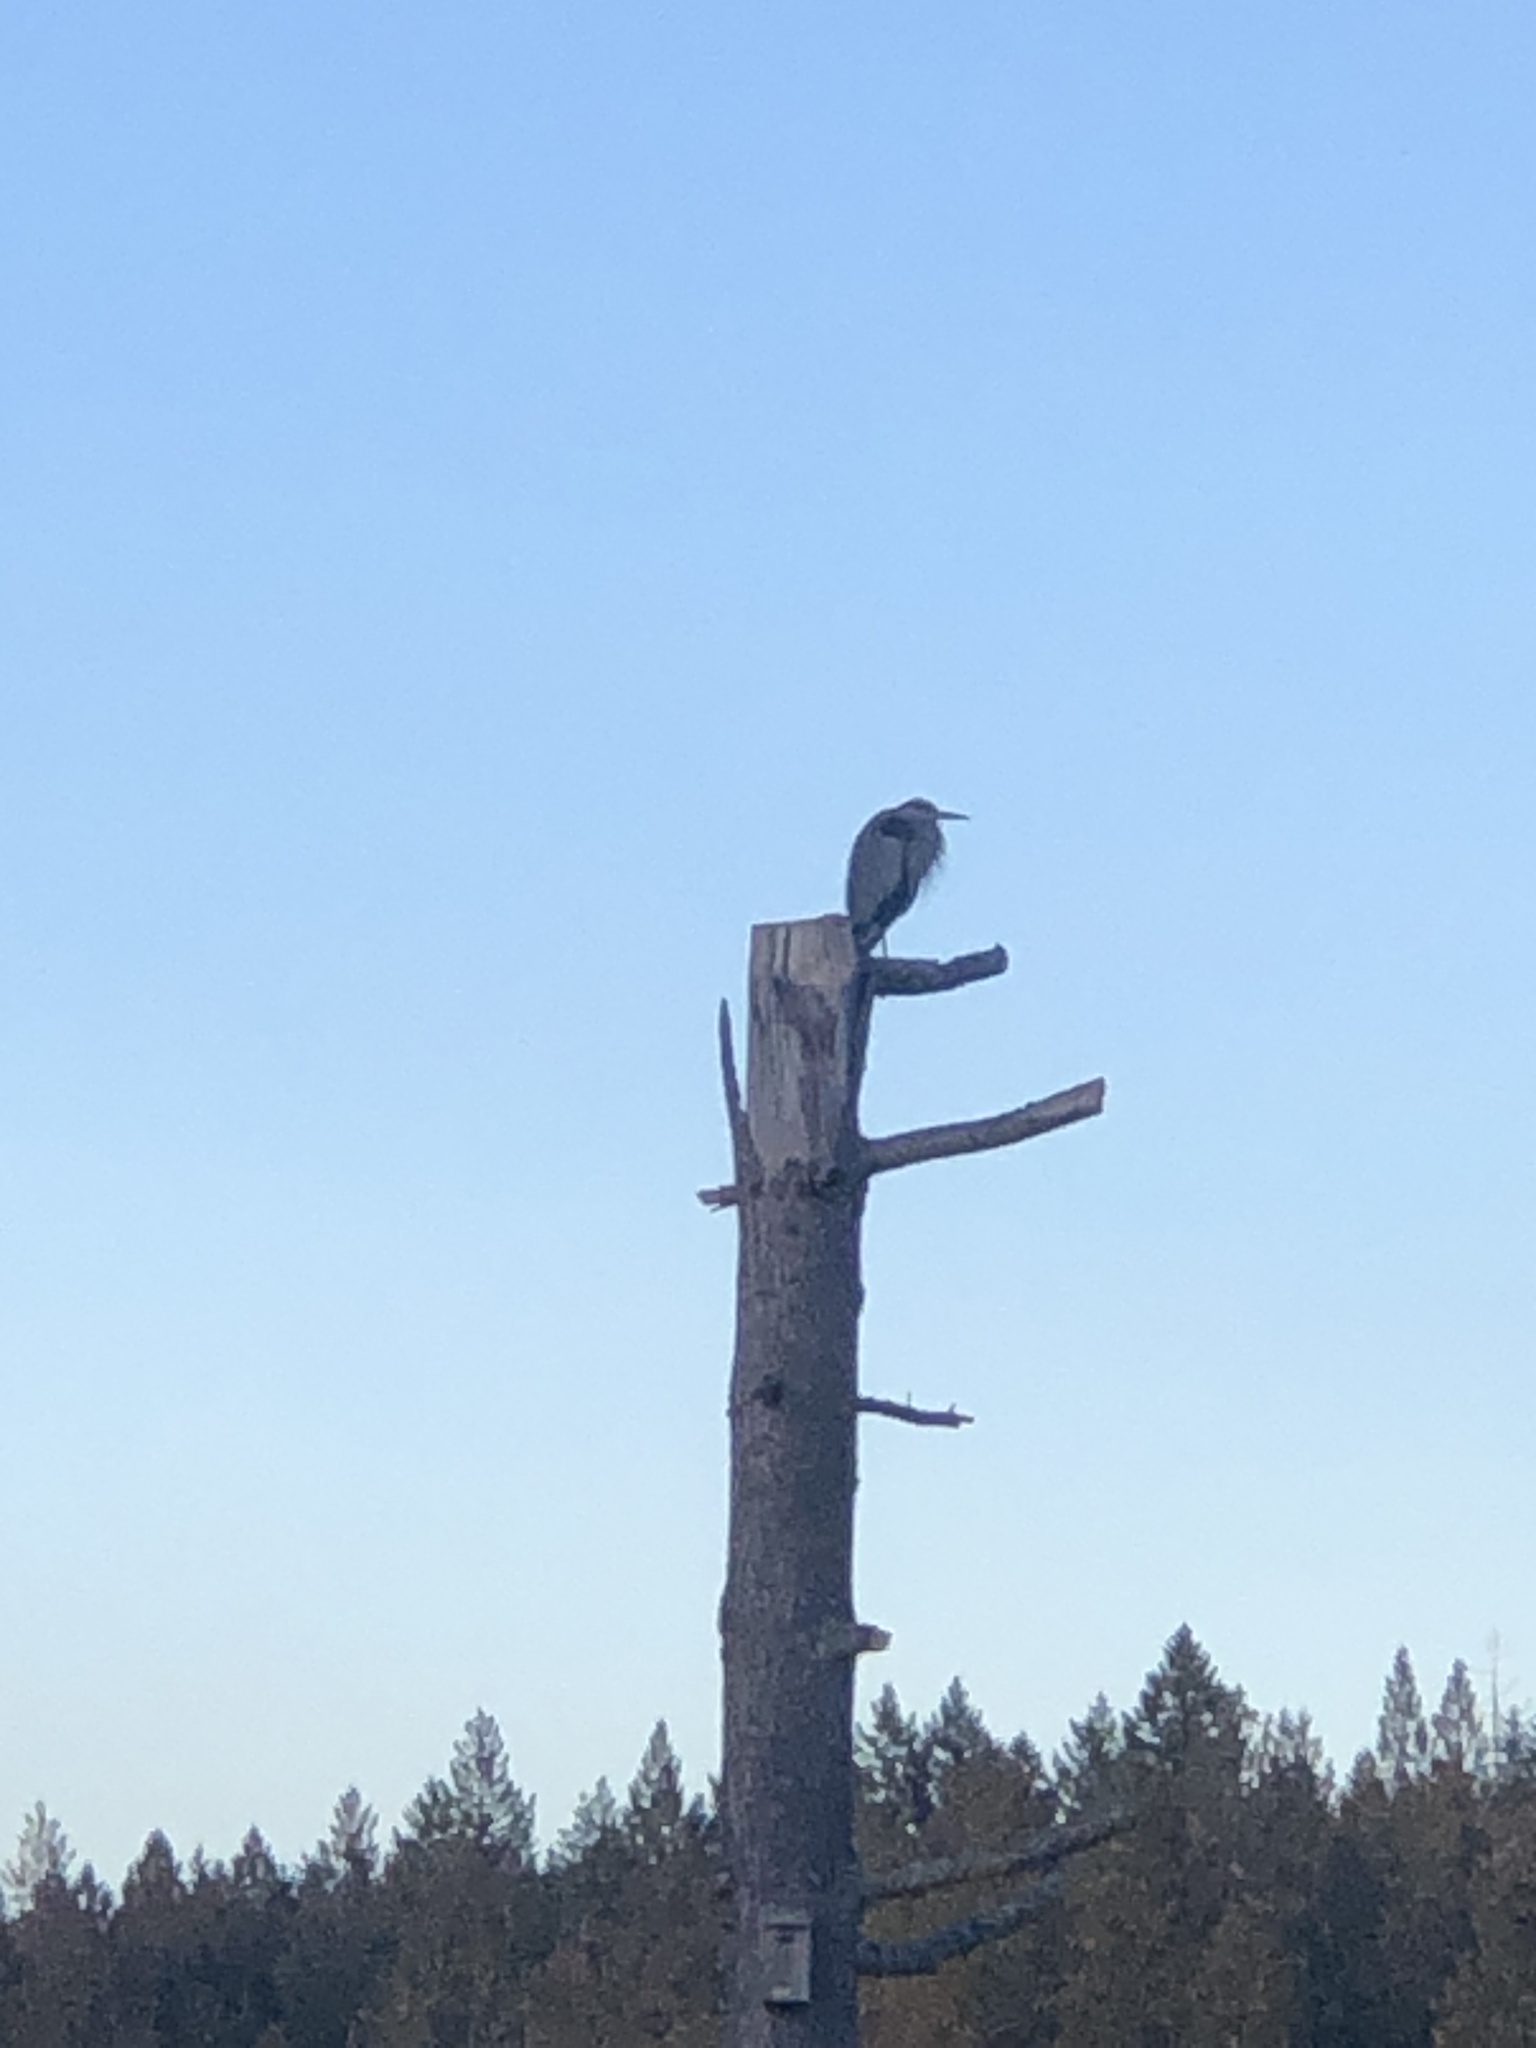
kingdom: Animalia
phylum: Chordata
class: Aves
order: Pelecaniformes
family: Ardeidae
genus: Ardea
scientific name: Ardea herodias
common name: Great blue heron
